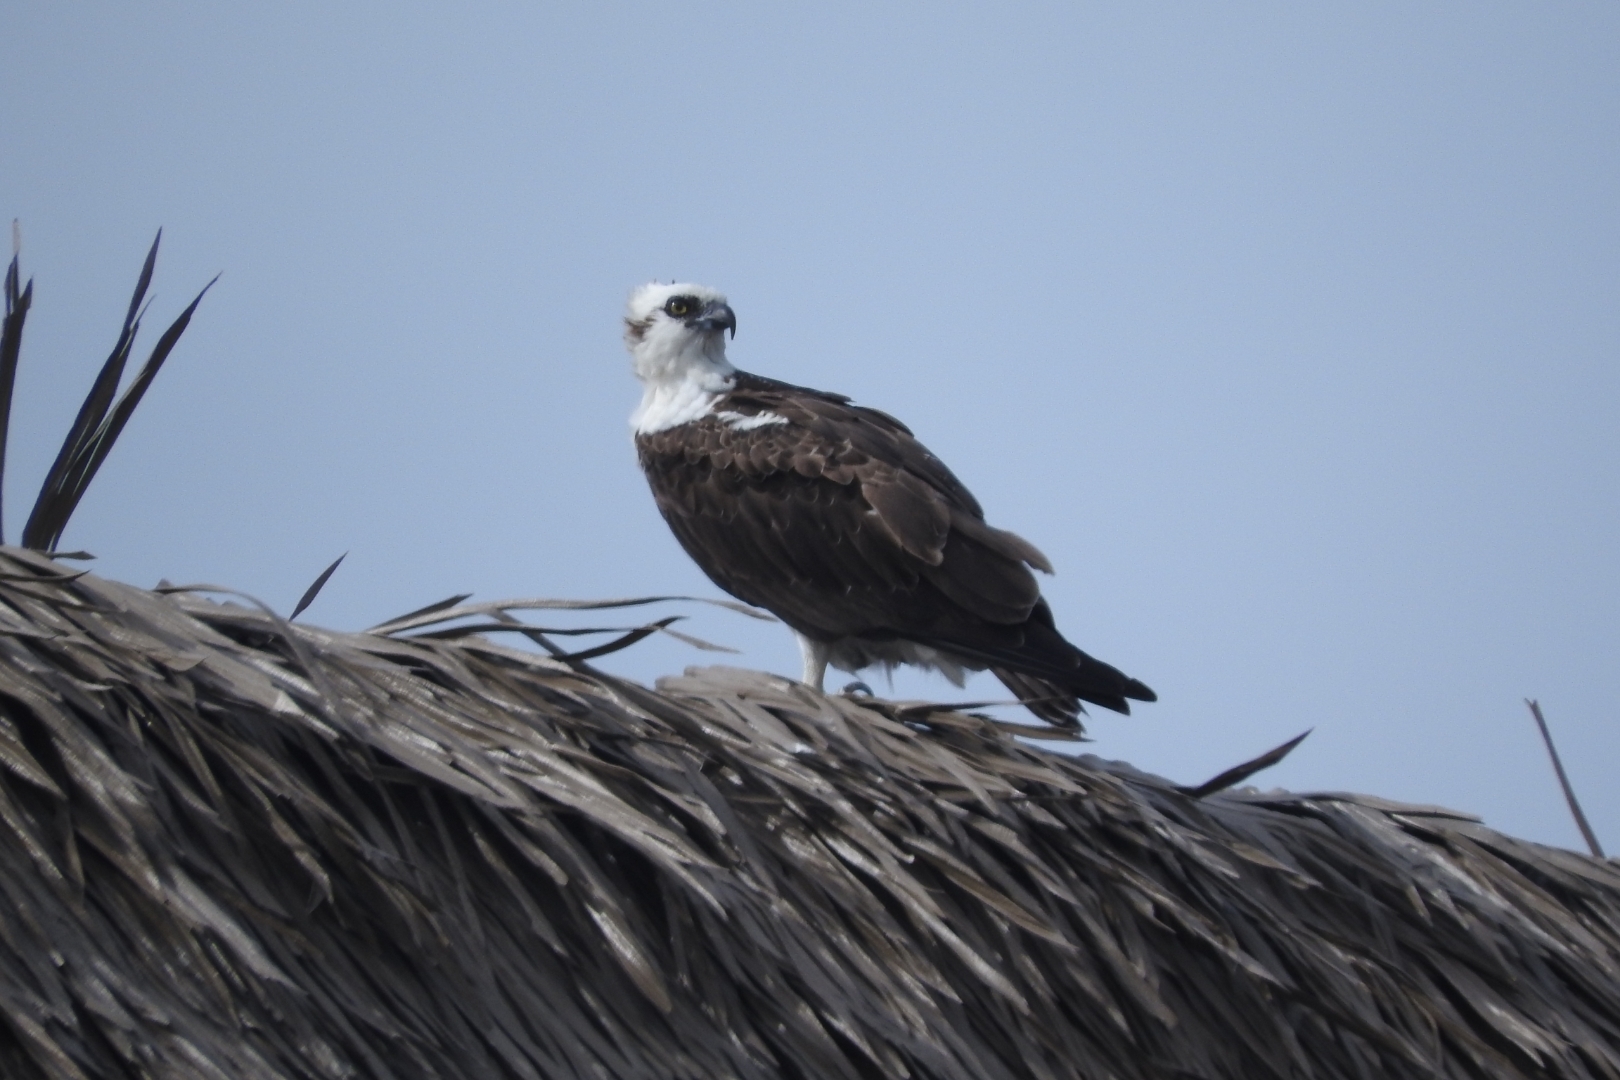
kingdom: Animalia
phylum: Chordata
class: Aves
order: Accipitriformes
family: Pandionidae
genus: Pandion
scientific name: Pandion haliaetus
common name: Osprey
